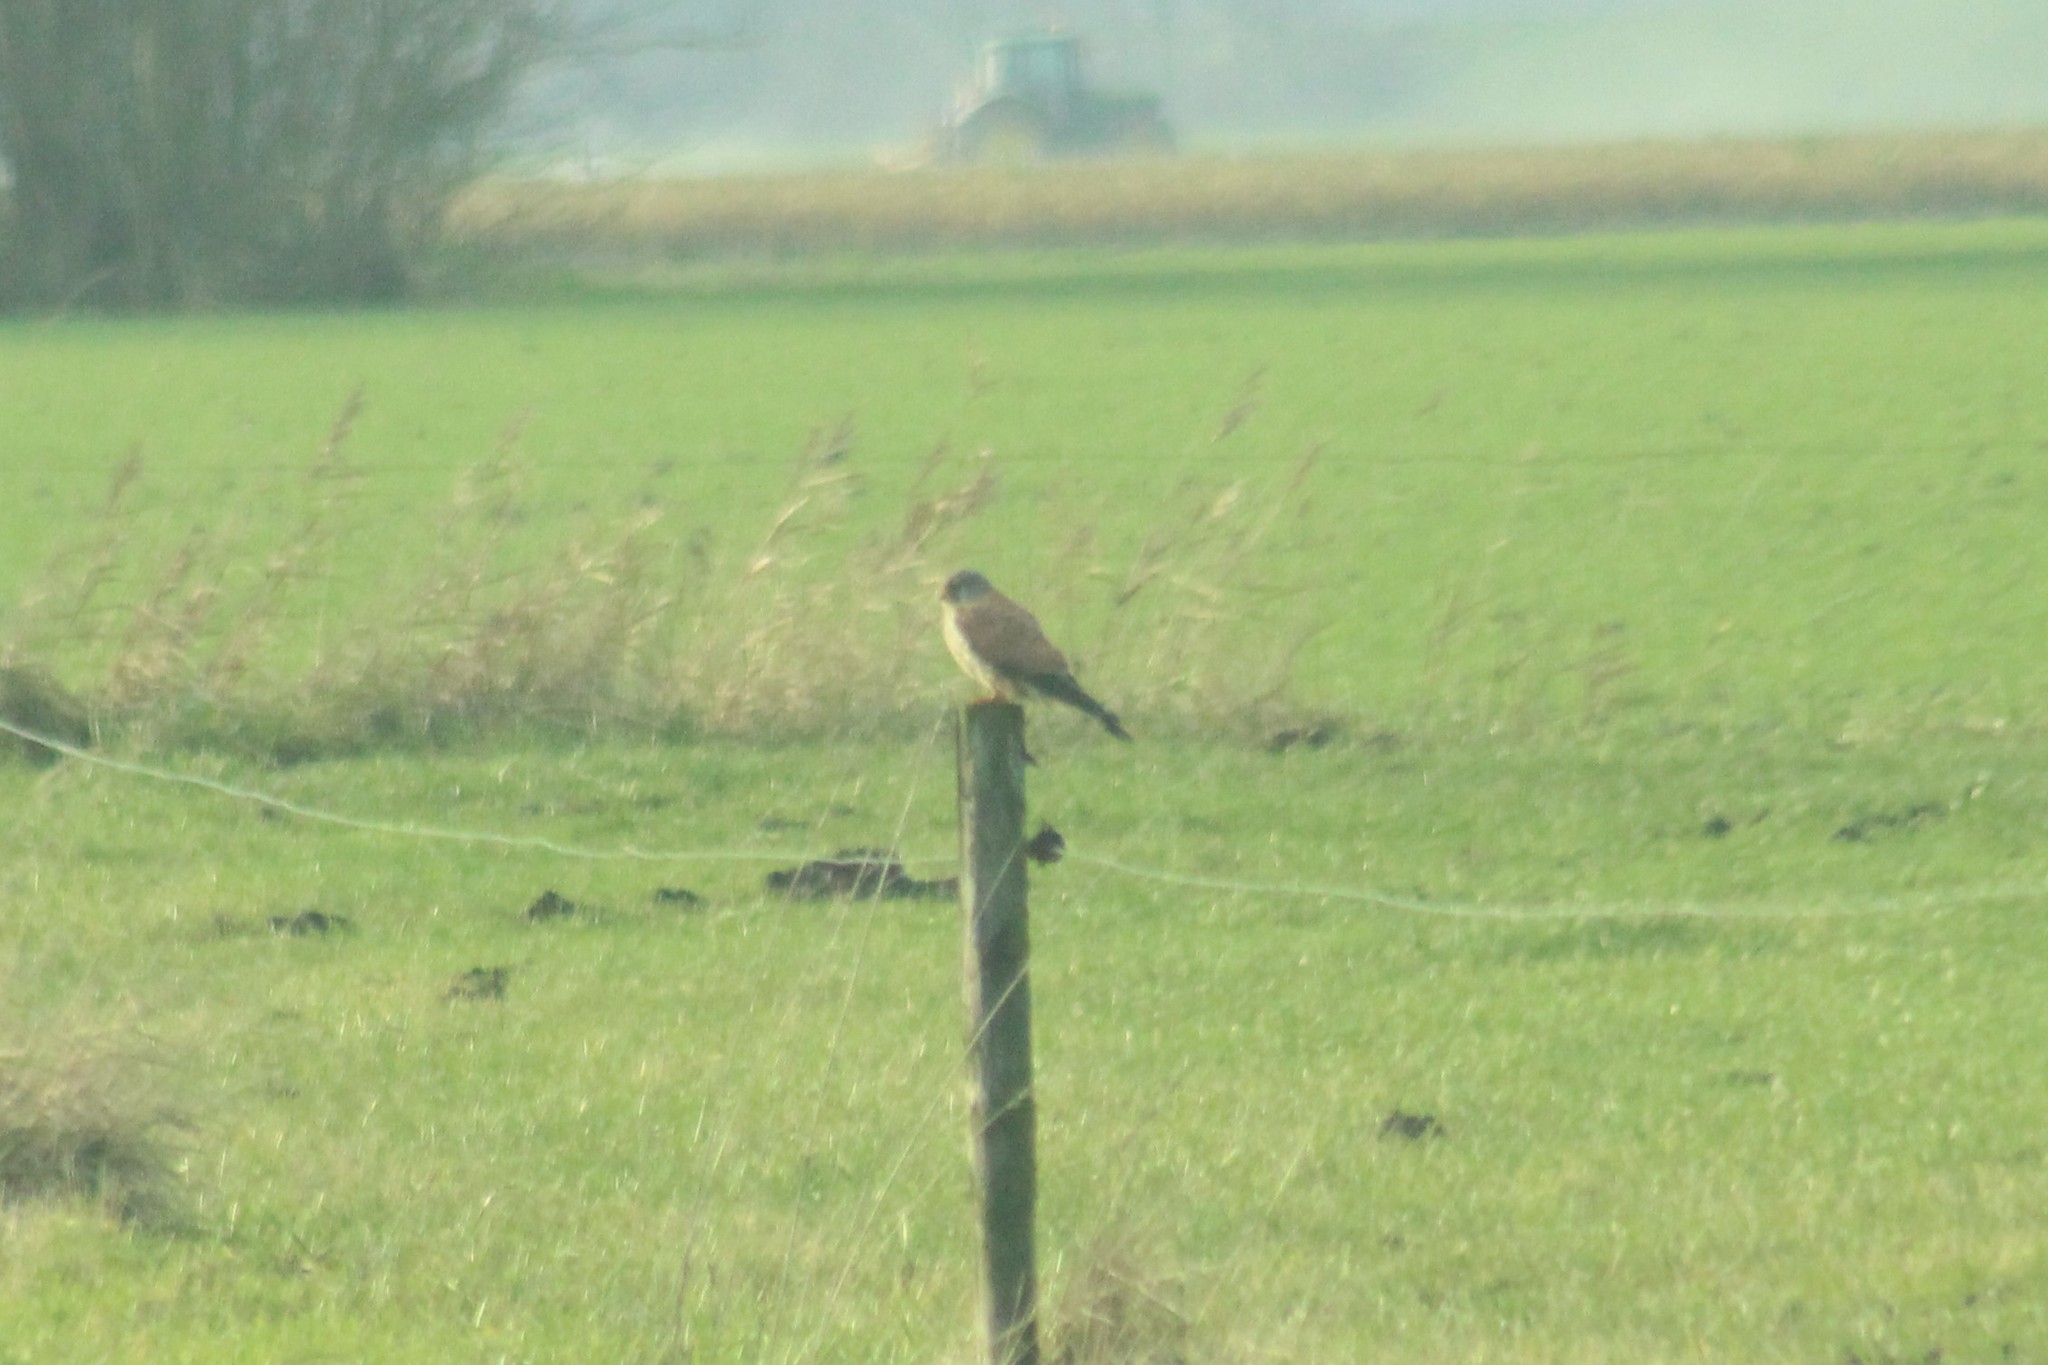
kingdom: Animalia
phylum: Chordata
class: Aves
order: Falconiformes
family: Falconidae
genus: Falco
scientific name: Falco tinnunculus
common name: Common kestrel
